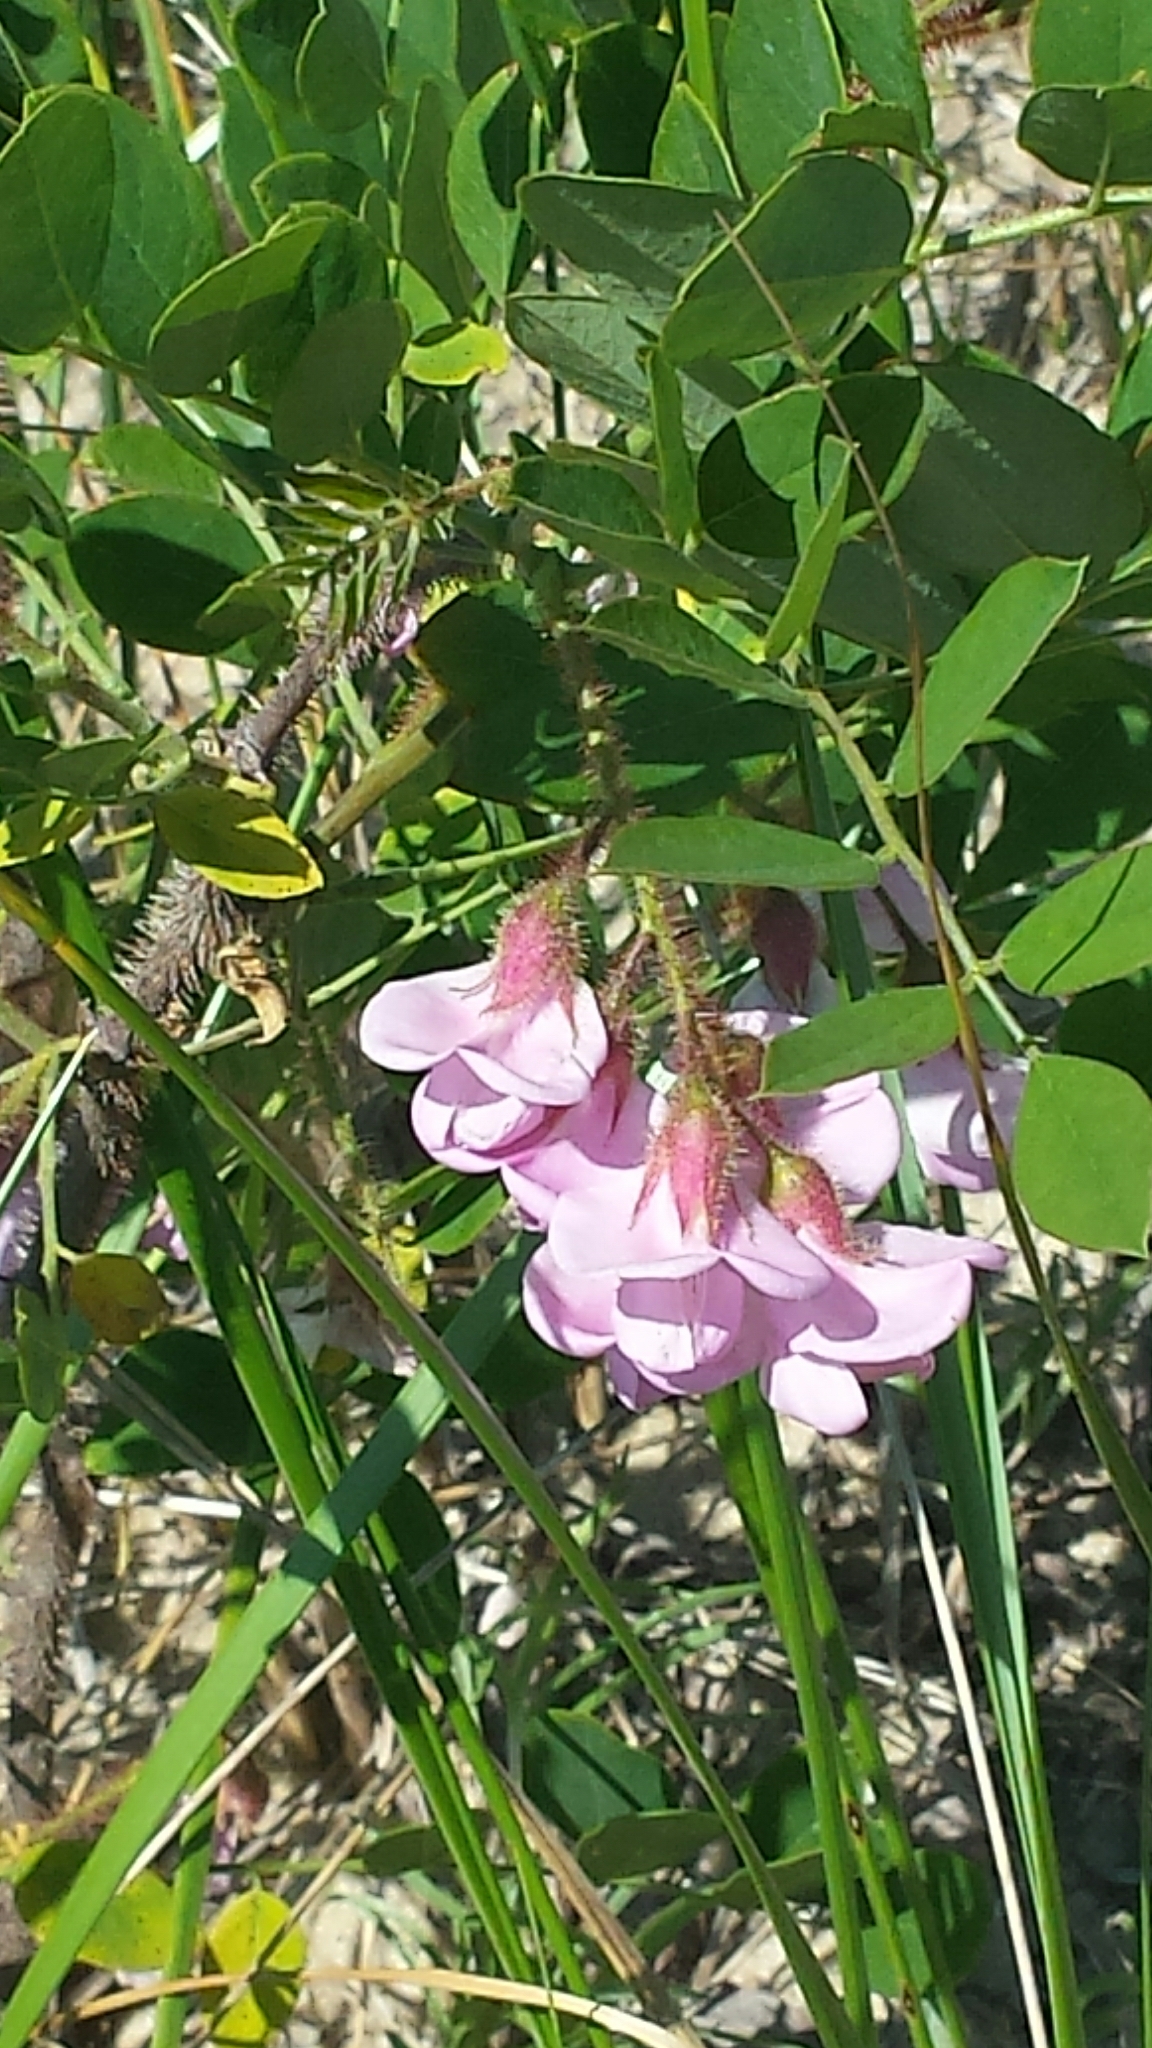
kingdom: Plantae
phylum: Tracheophyta
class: Magnoliopsida
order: Fabales
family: Fabaceae
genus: Robinia
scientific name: Robinia hispida
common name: Bristly locust
